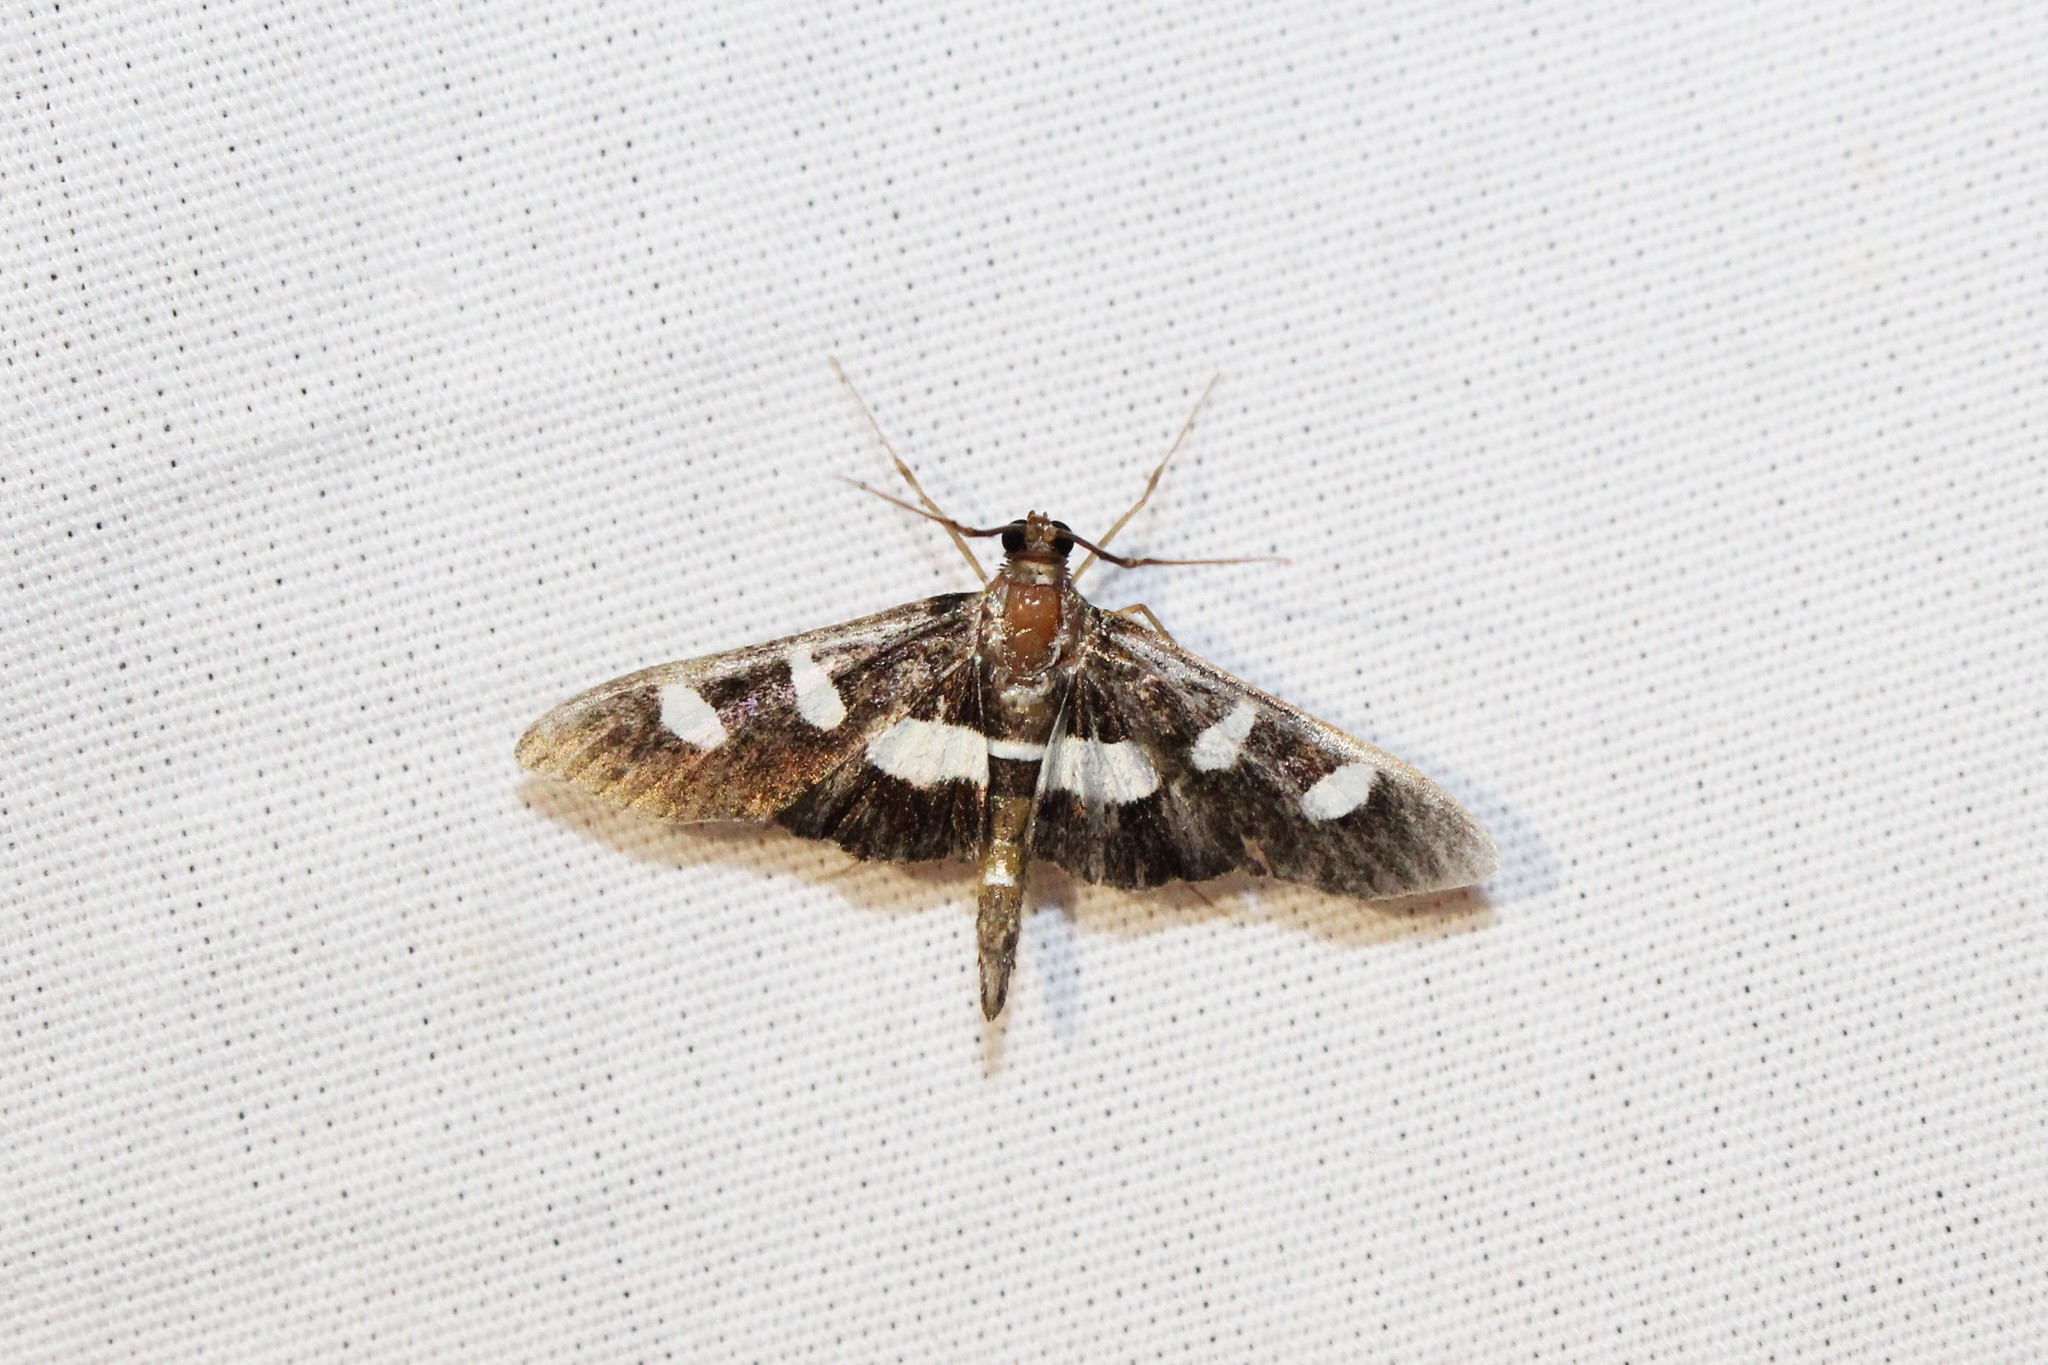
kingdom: Animalia
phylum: Arthropoda
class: Insecta
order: Lepidoptera
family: Crambidae
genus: Desmia
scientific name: Desmia funeralis
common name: Grape leaf folder moth
